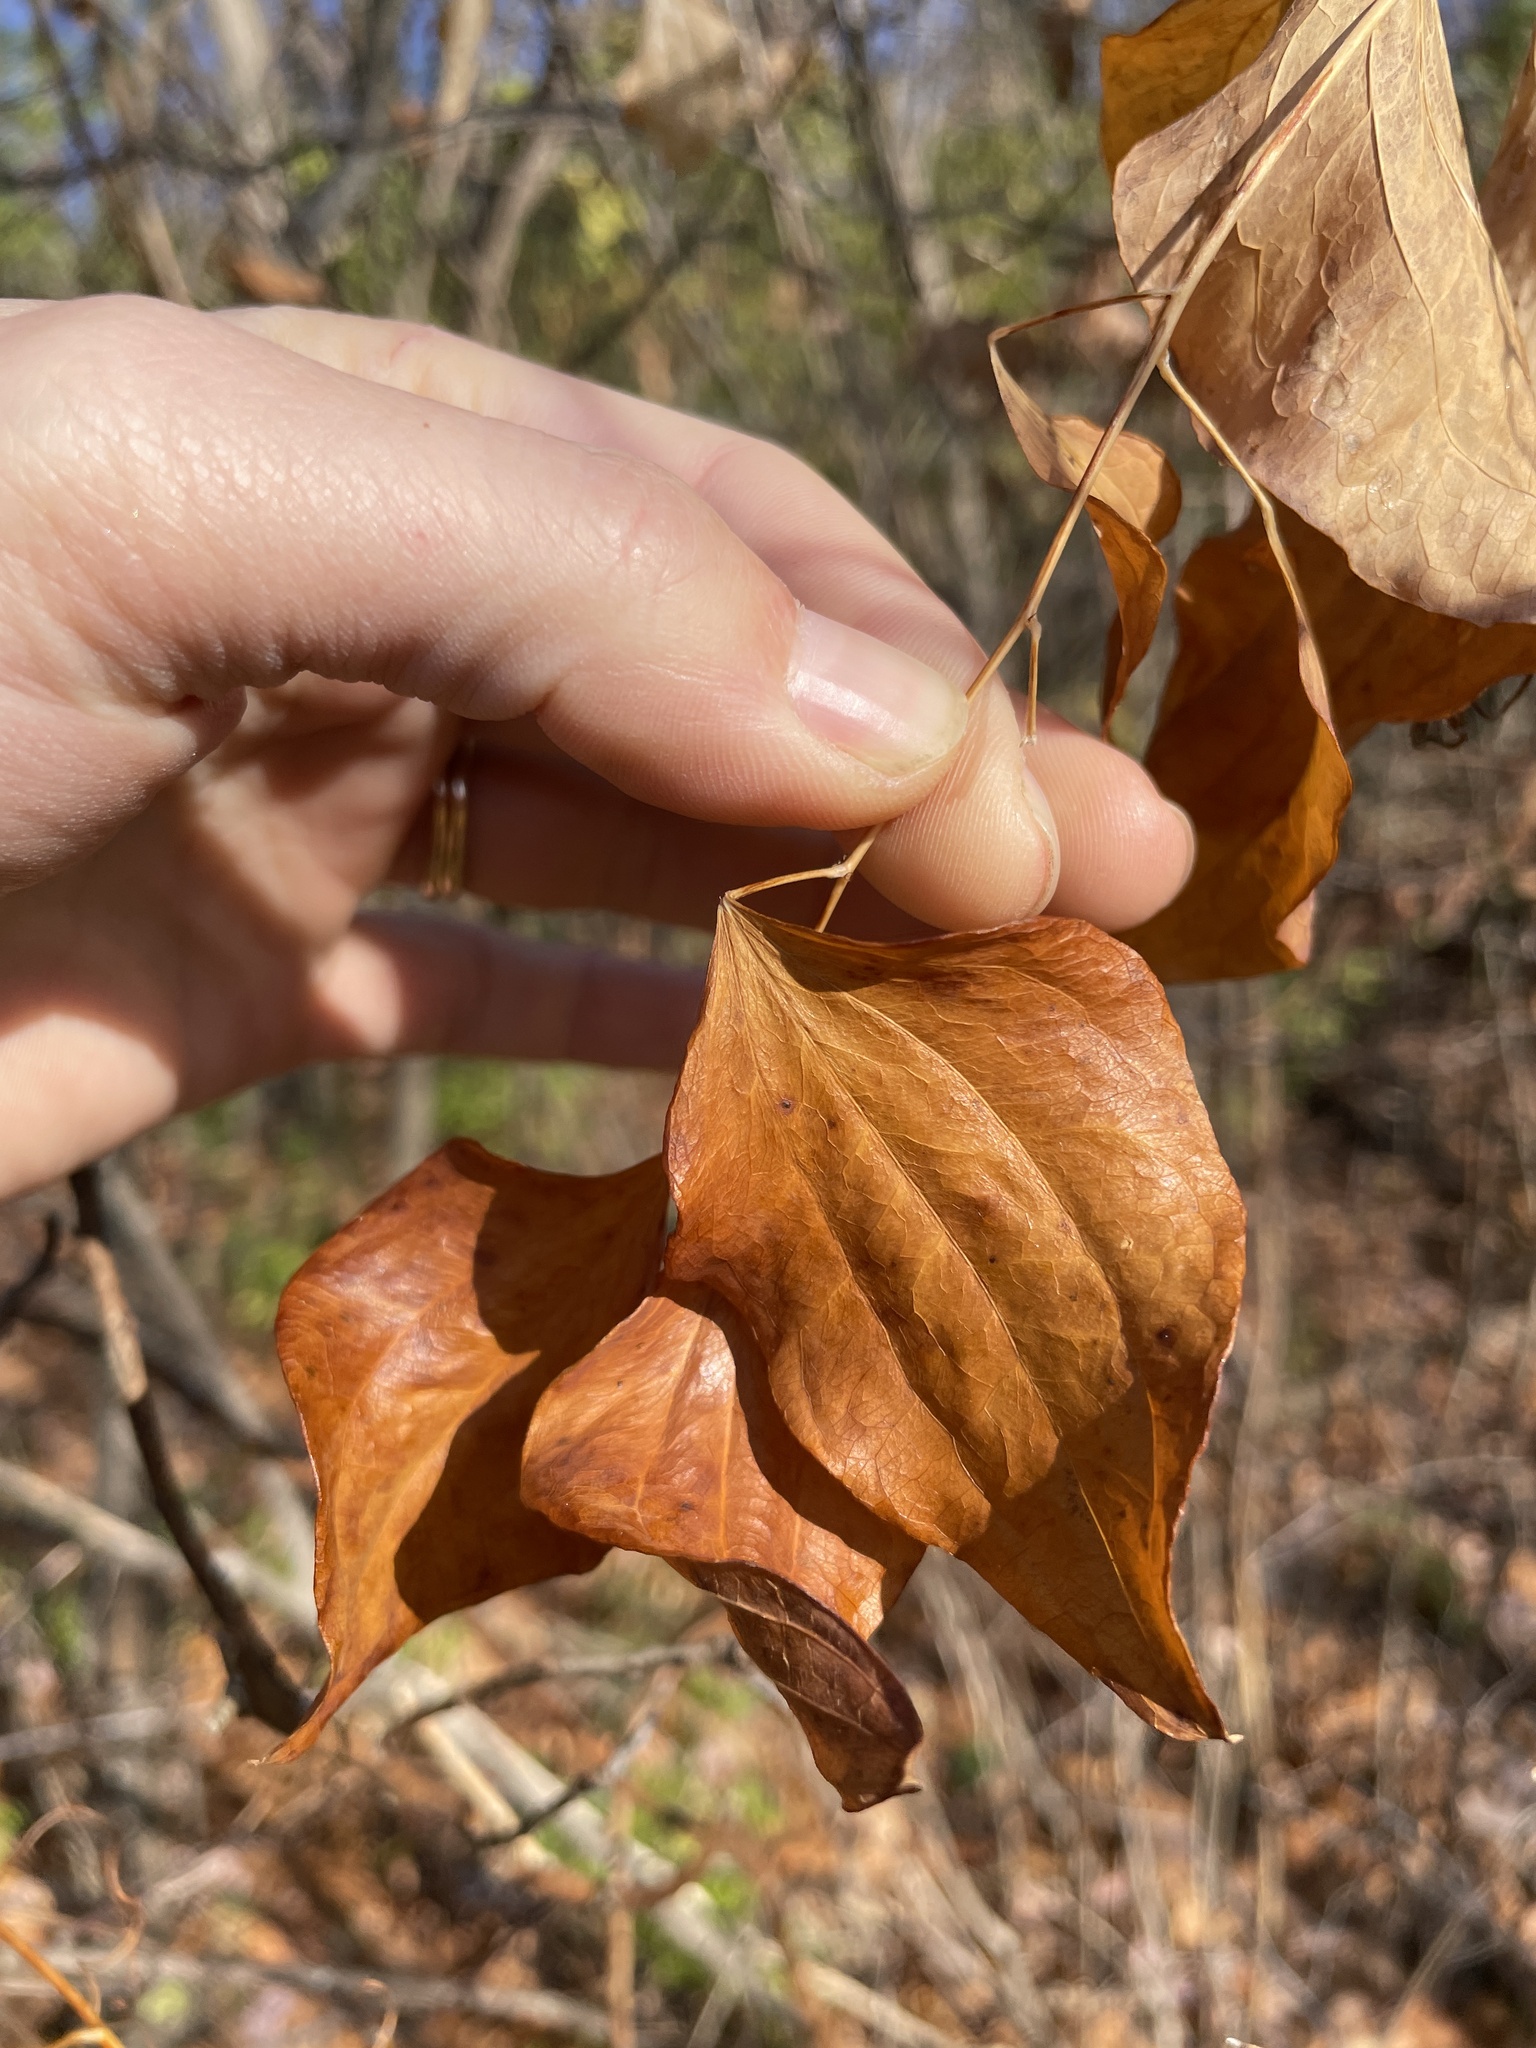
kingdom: Plantae
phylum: Tracheophyta
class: Liliopsida
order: Liliales
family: Smilacaceae
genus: Smilax
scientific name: Smilax herbacea
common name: Jacob's-ladder
